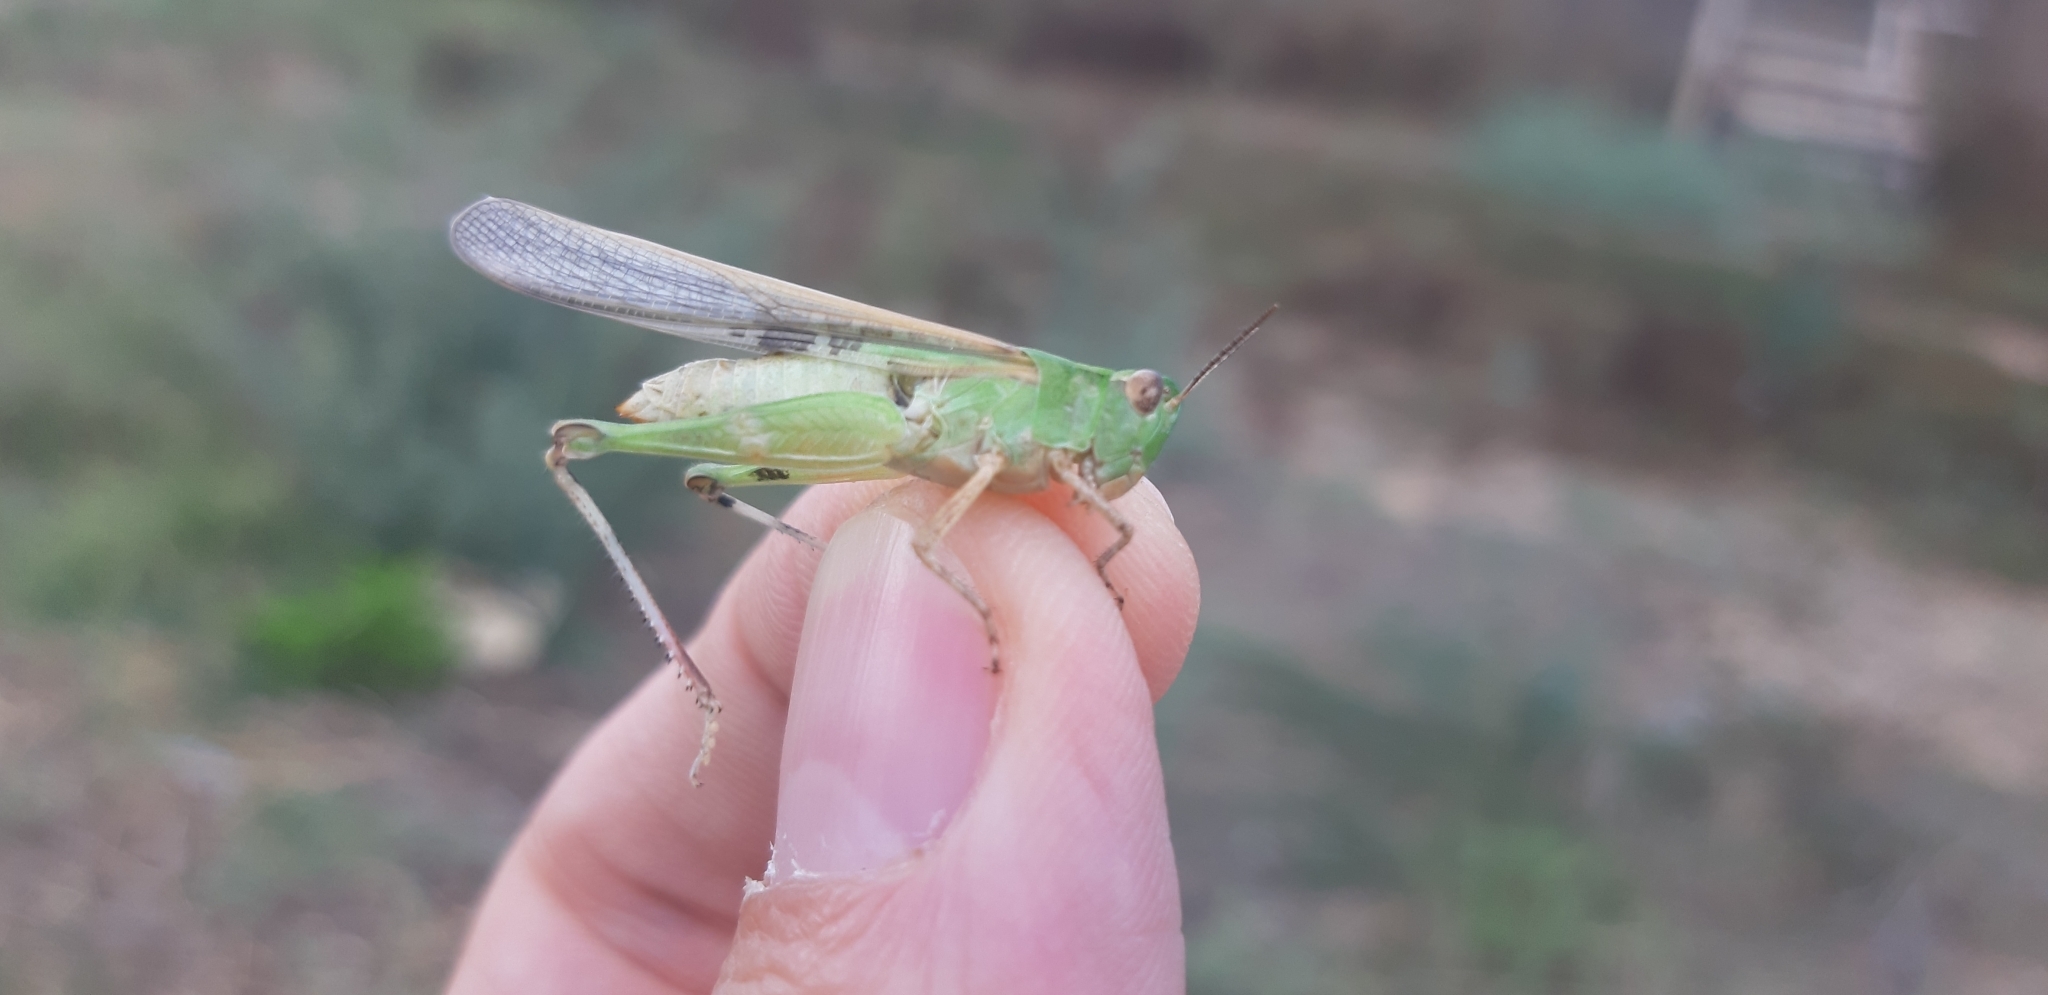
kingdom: Animalia
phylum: Arthropoda
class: Insecta
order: Orthoptera
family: Acrididae
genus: Aiolopus
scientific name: Aiolopus puissanti
